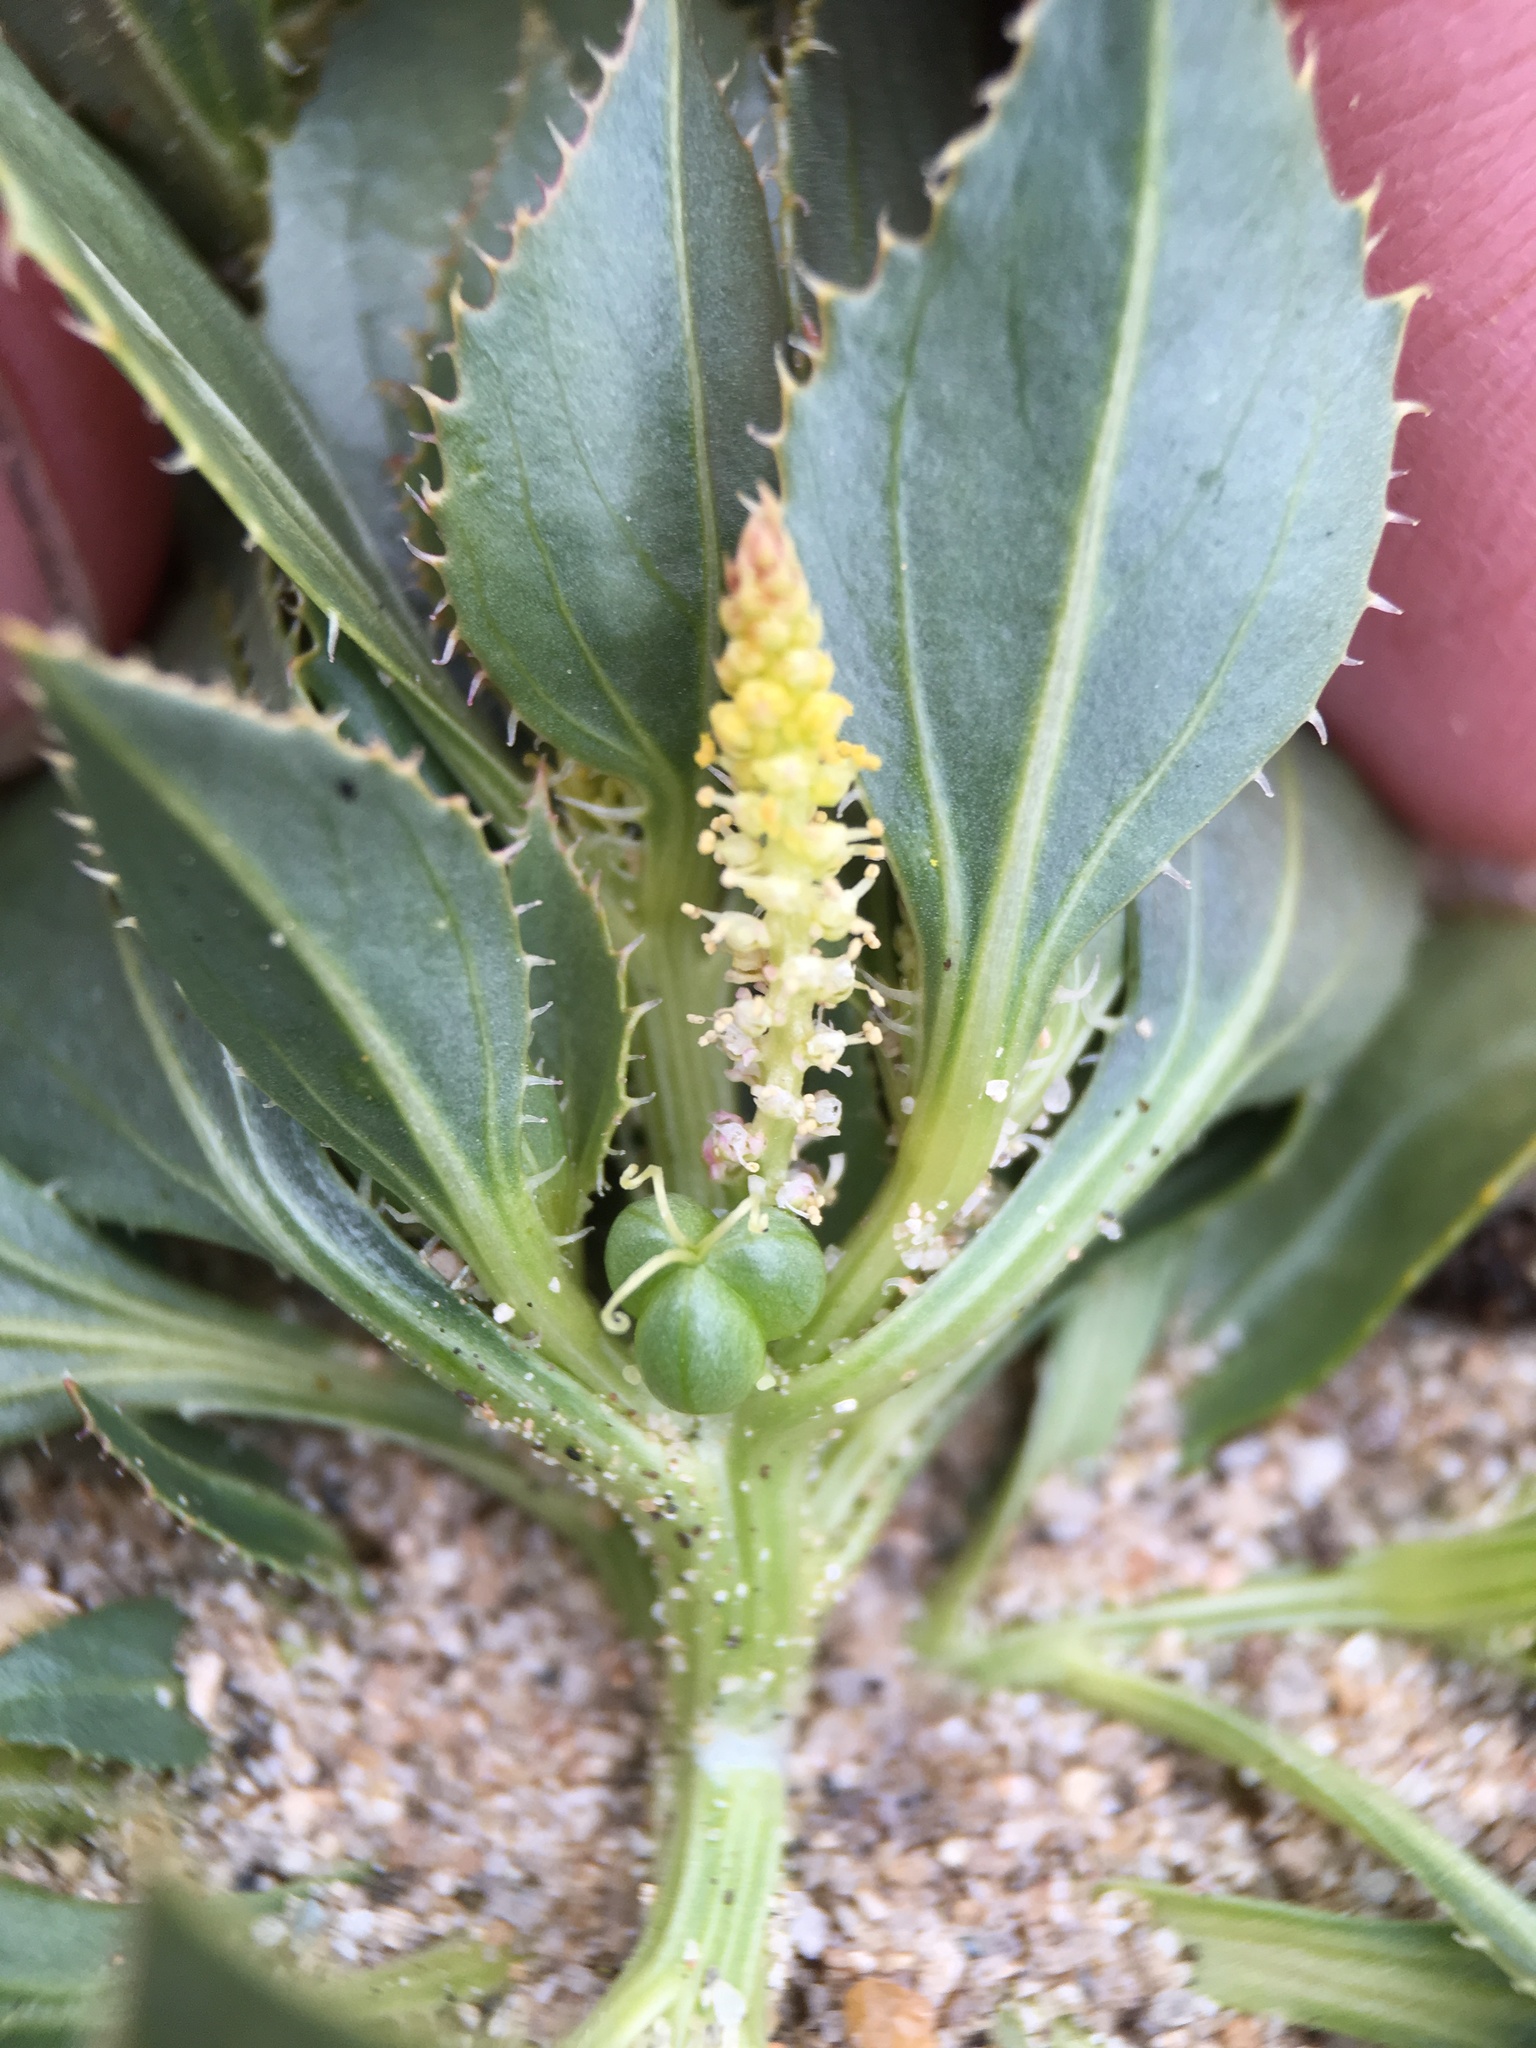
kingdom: Plantae
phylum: Tracheophyta
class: Magnoliopsida
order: Malpighiales
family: Euphorbiaceae
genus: Stillingia
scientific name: Stillingia spinulosa
